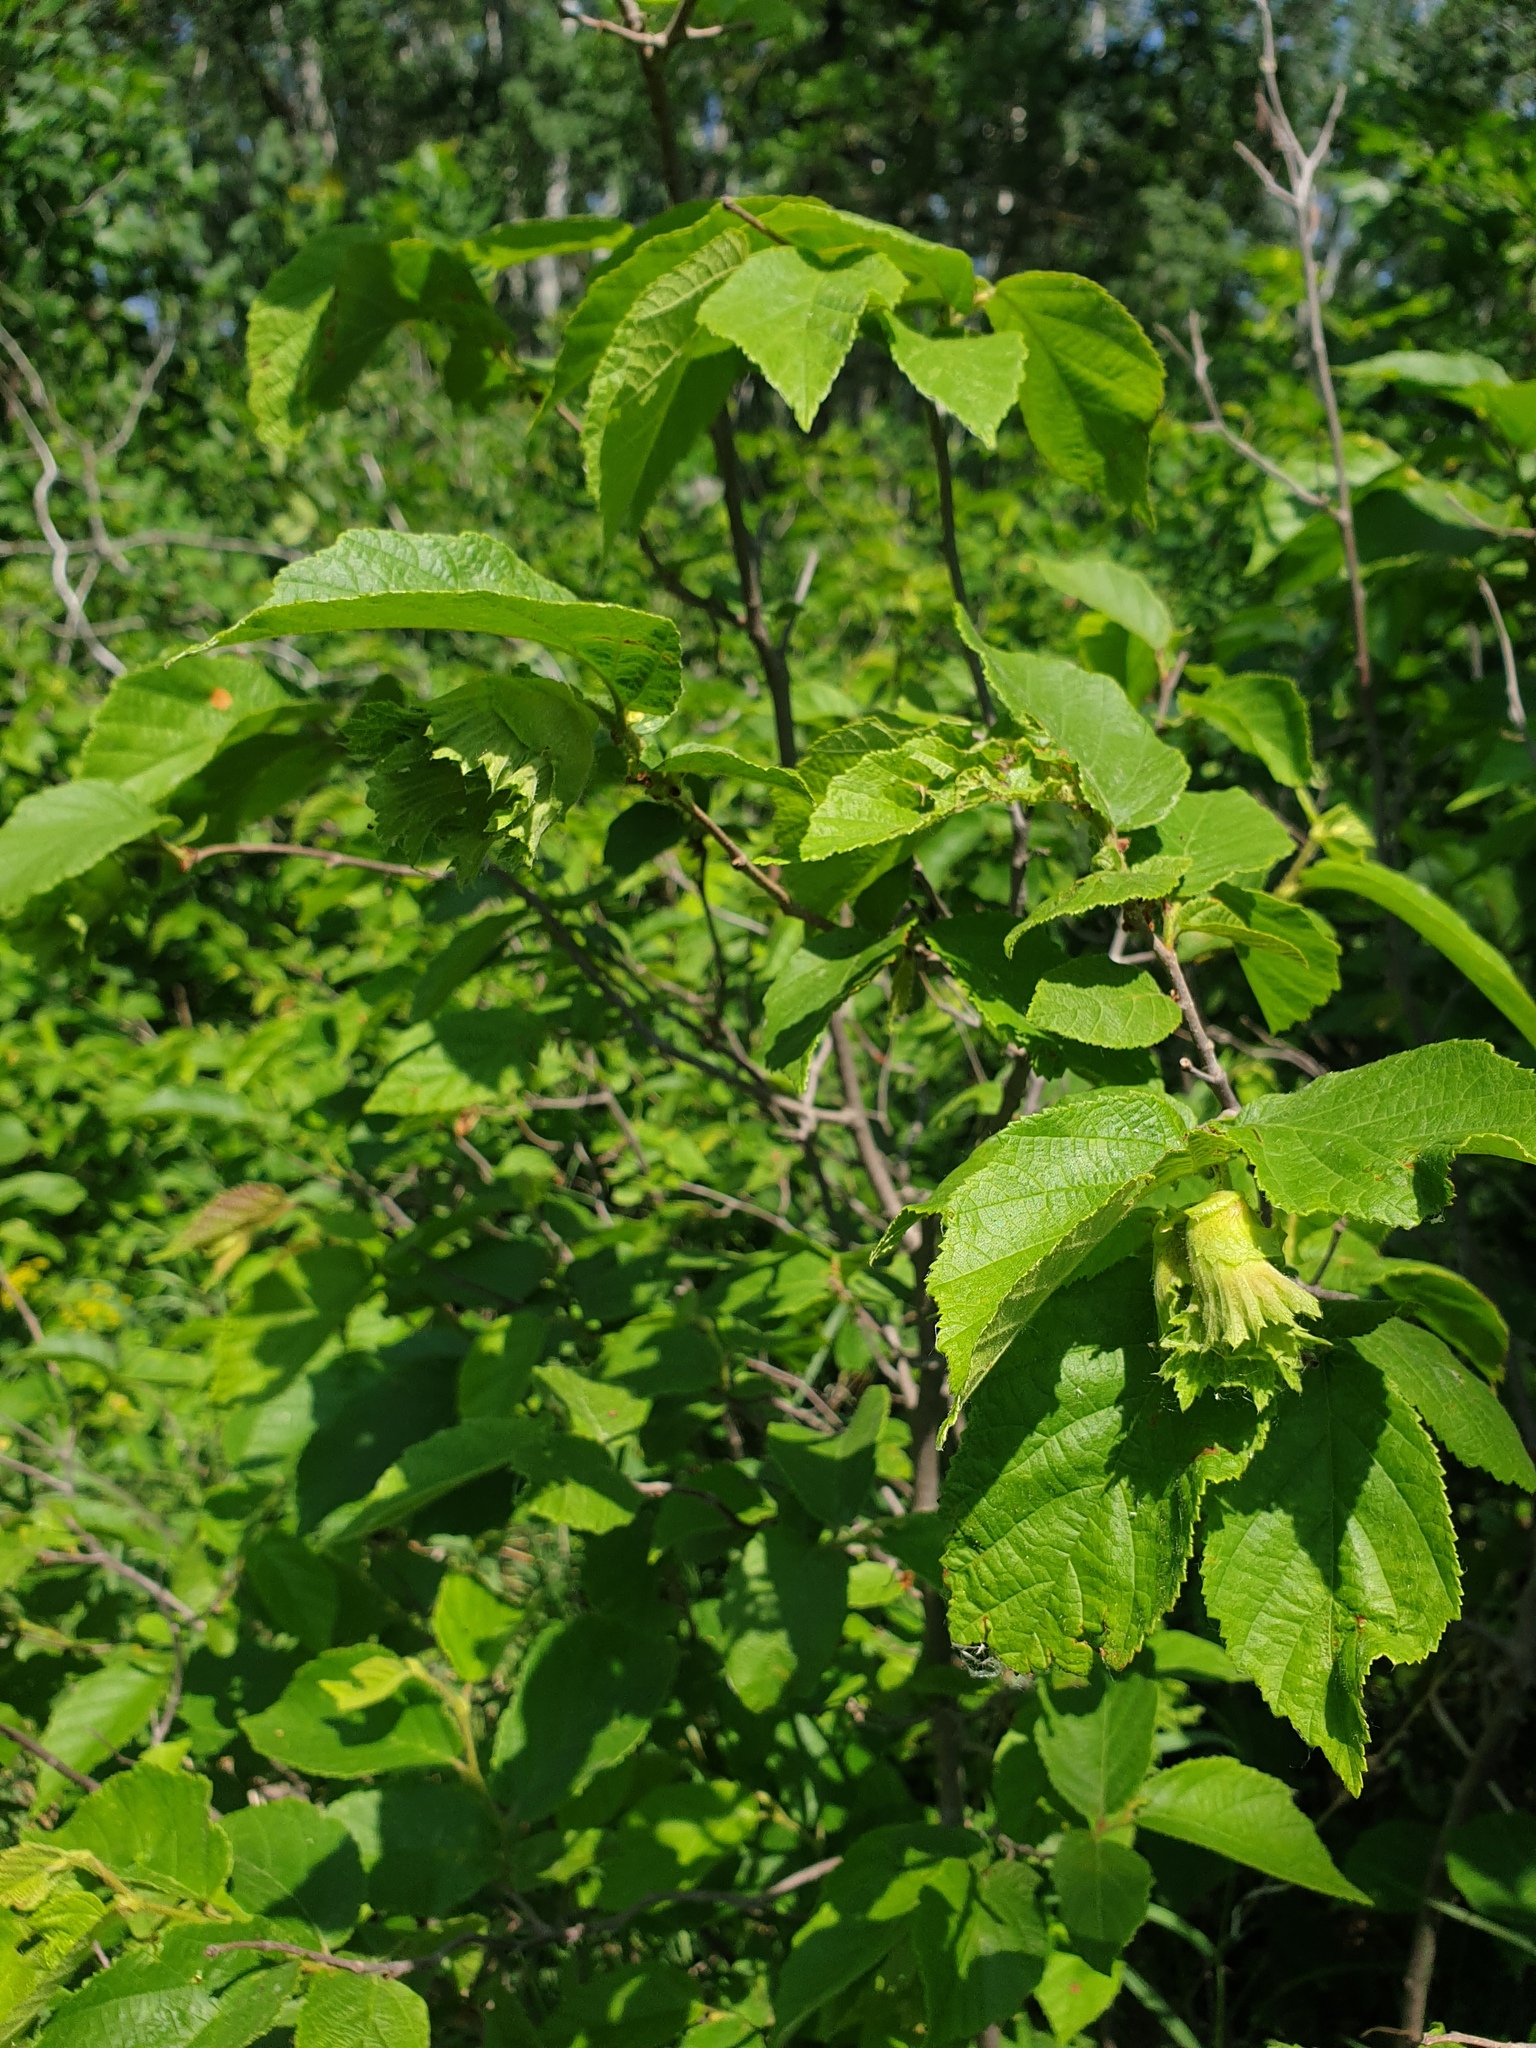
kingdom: Plantae
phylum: Tracheophyta
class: Magnoliopsida
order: Fagales
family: Betulaceae
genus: Corylus
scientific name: Corylus americana
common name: American hazel
